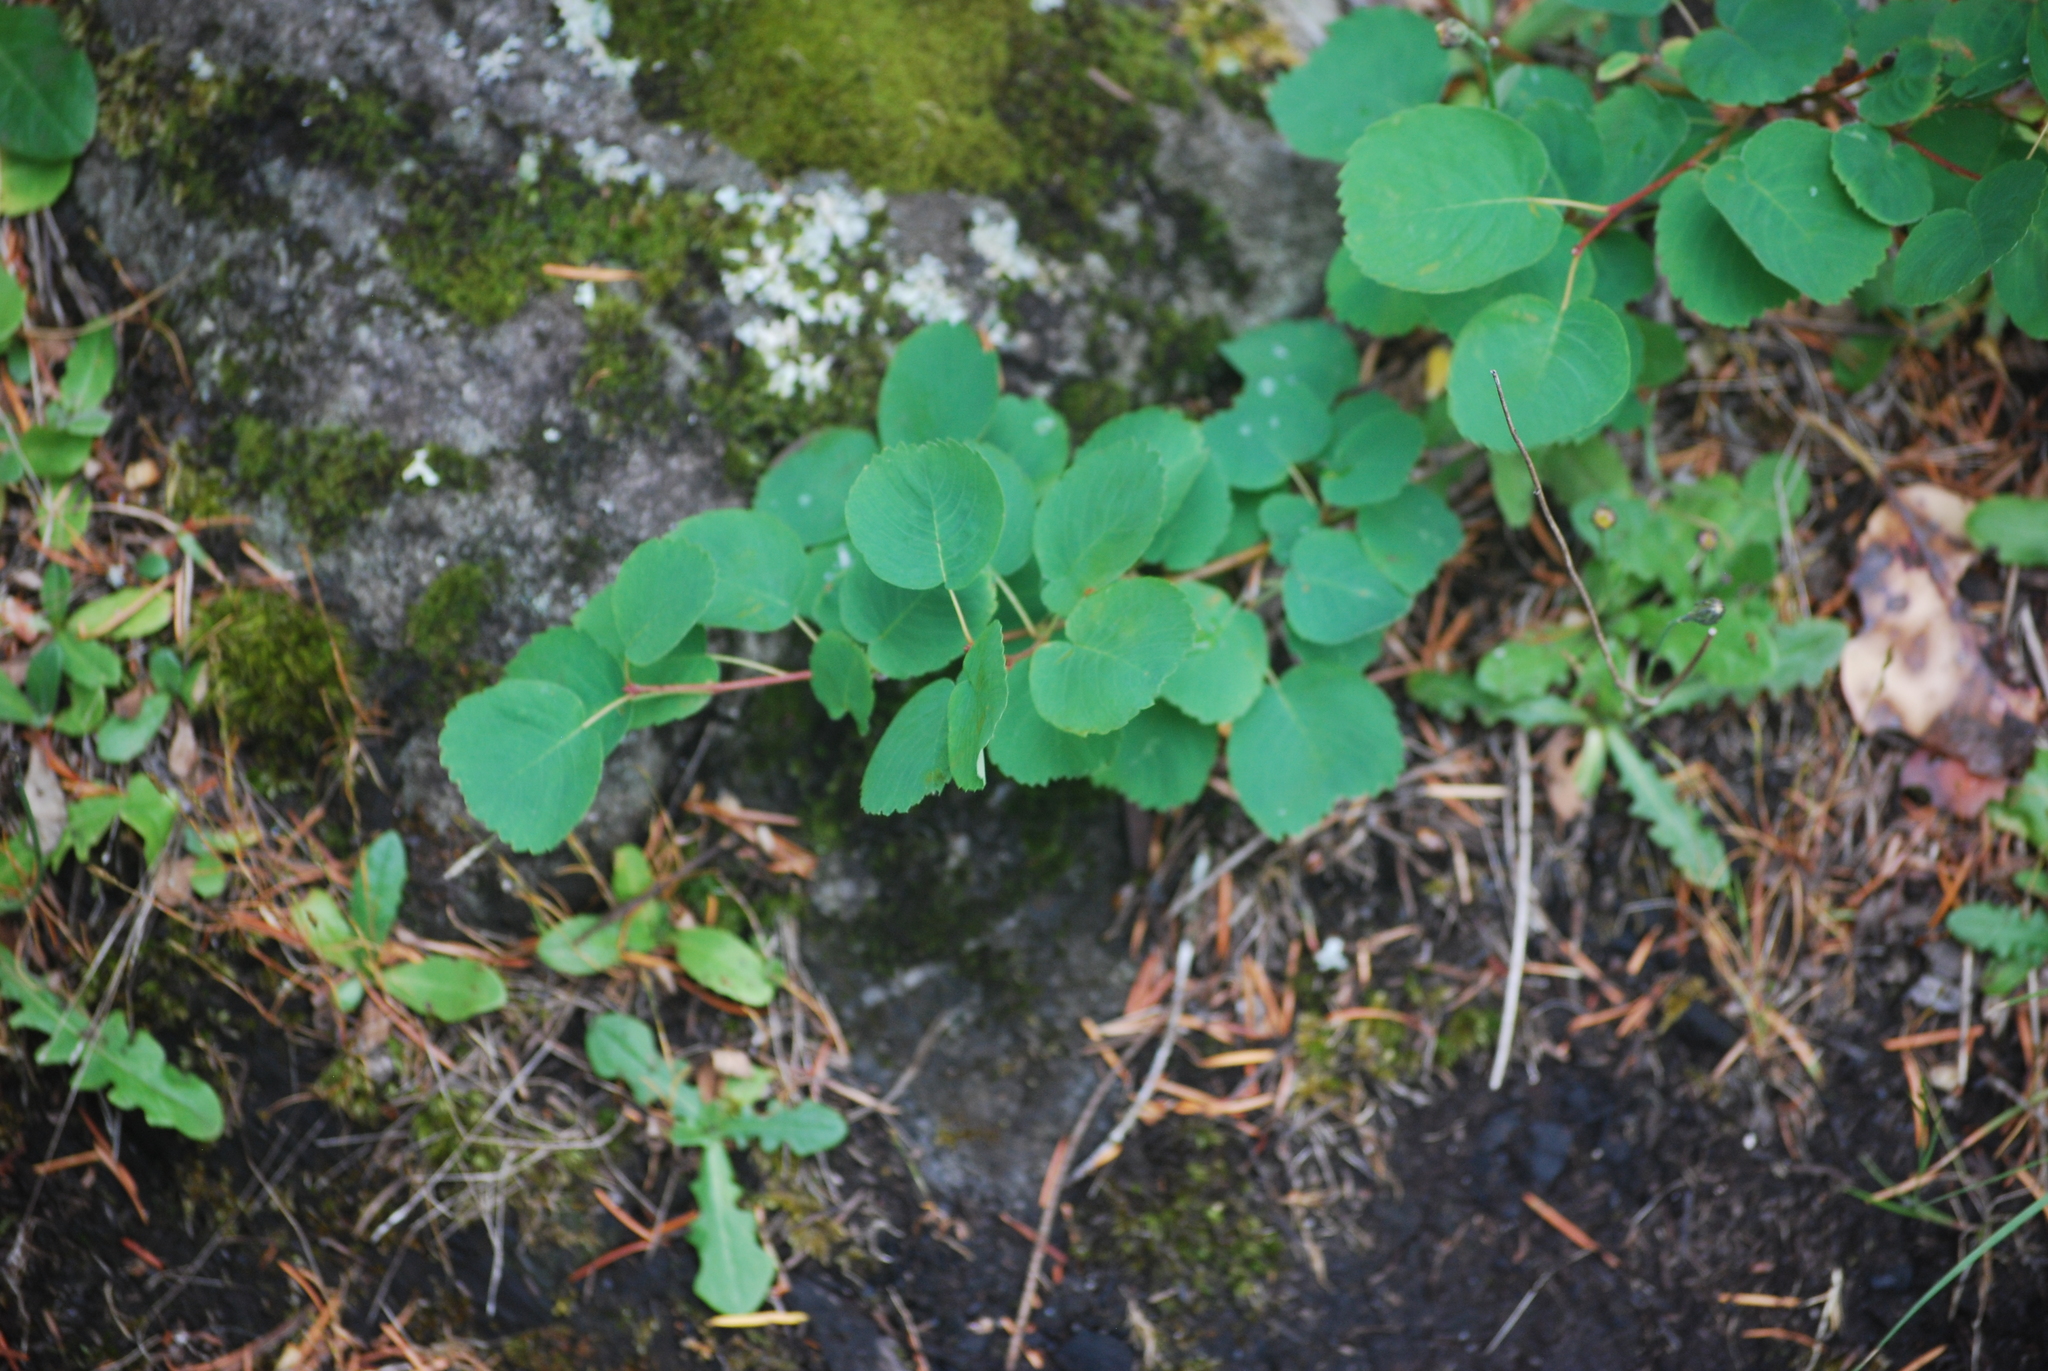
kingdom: Plantae
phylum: Tracheophyta
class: Magnoliopsida
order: Rosales
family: Rosaceae
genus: Amelanchier
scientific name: Amelanchier alnifolia
